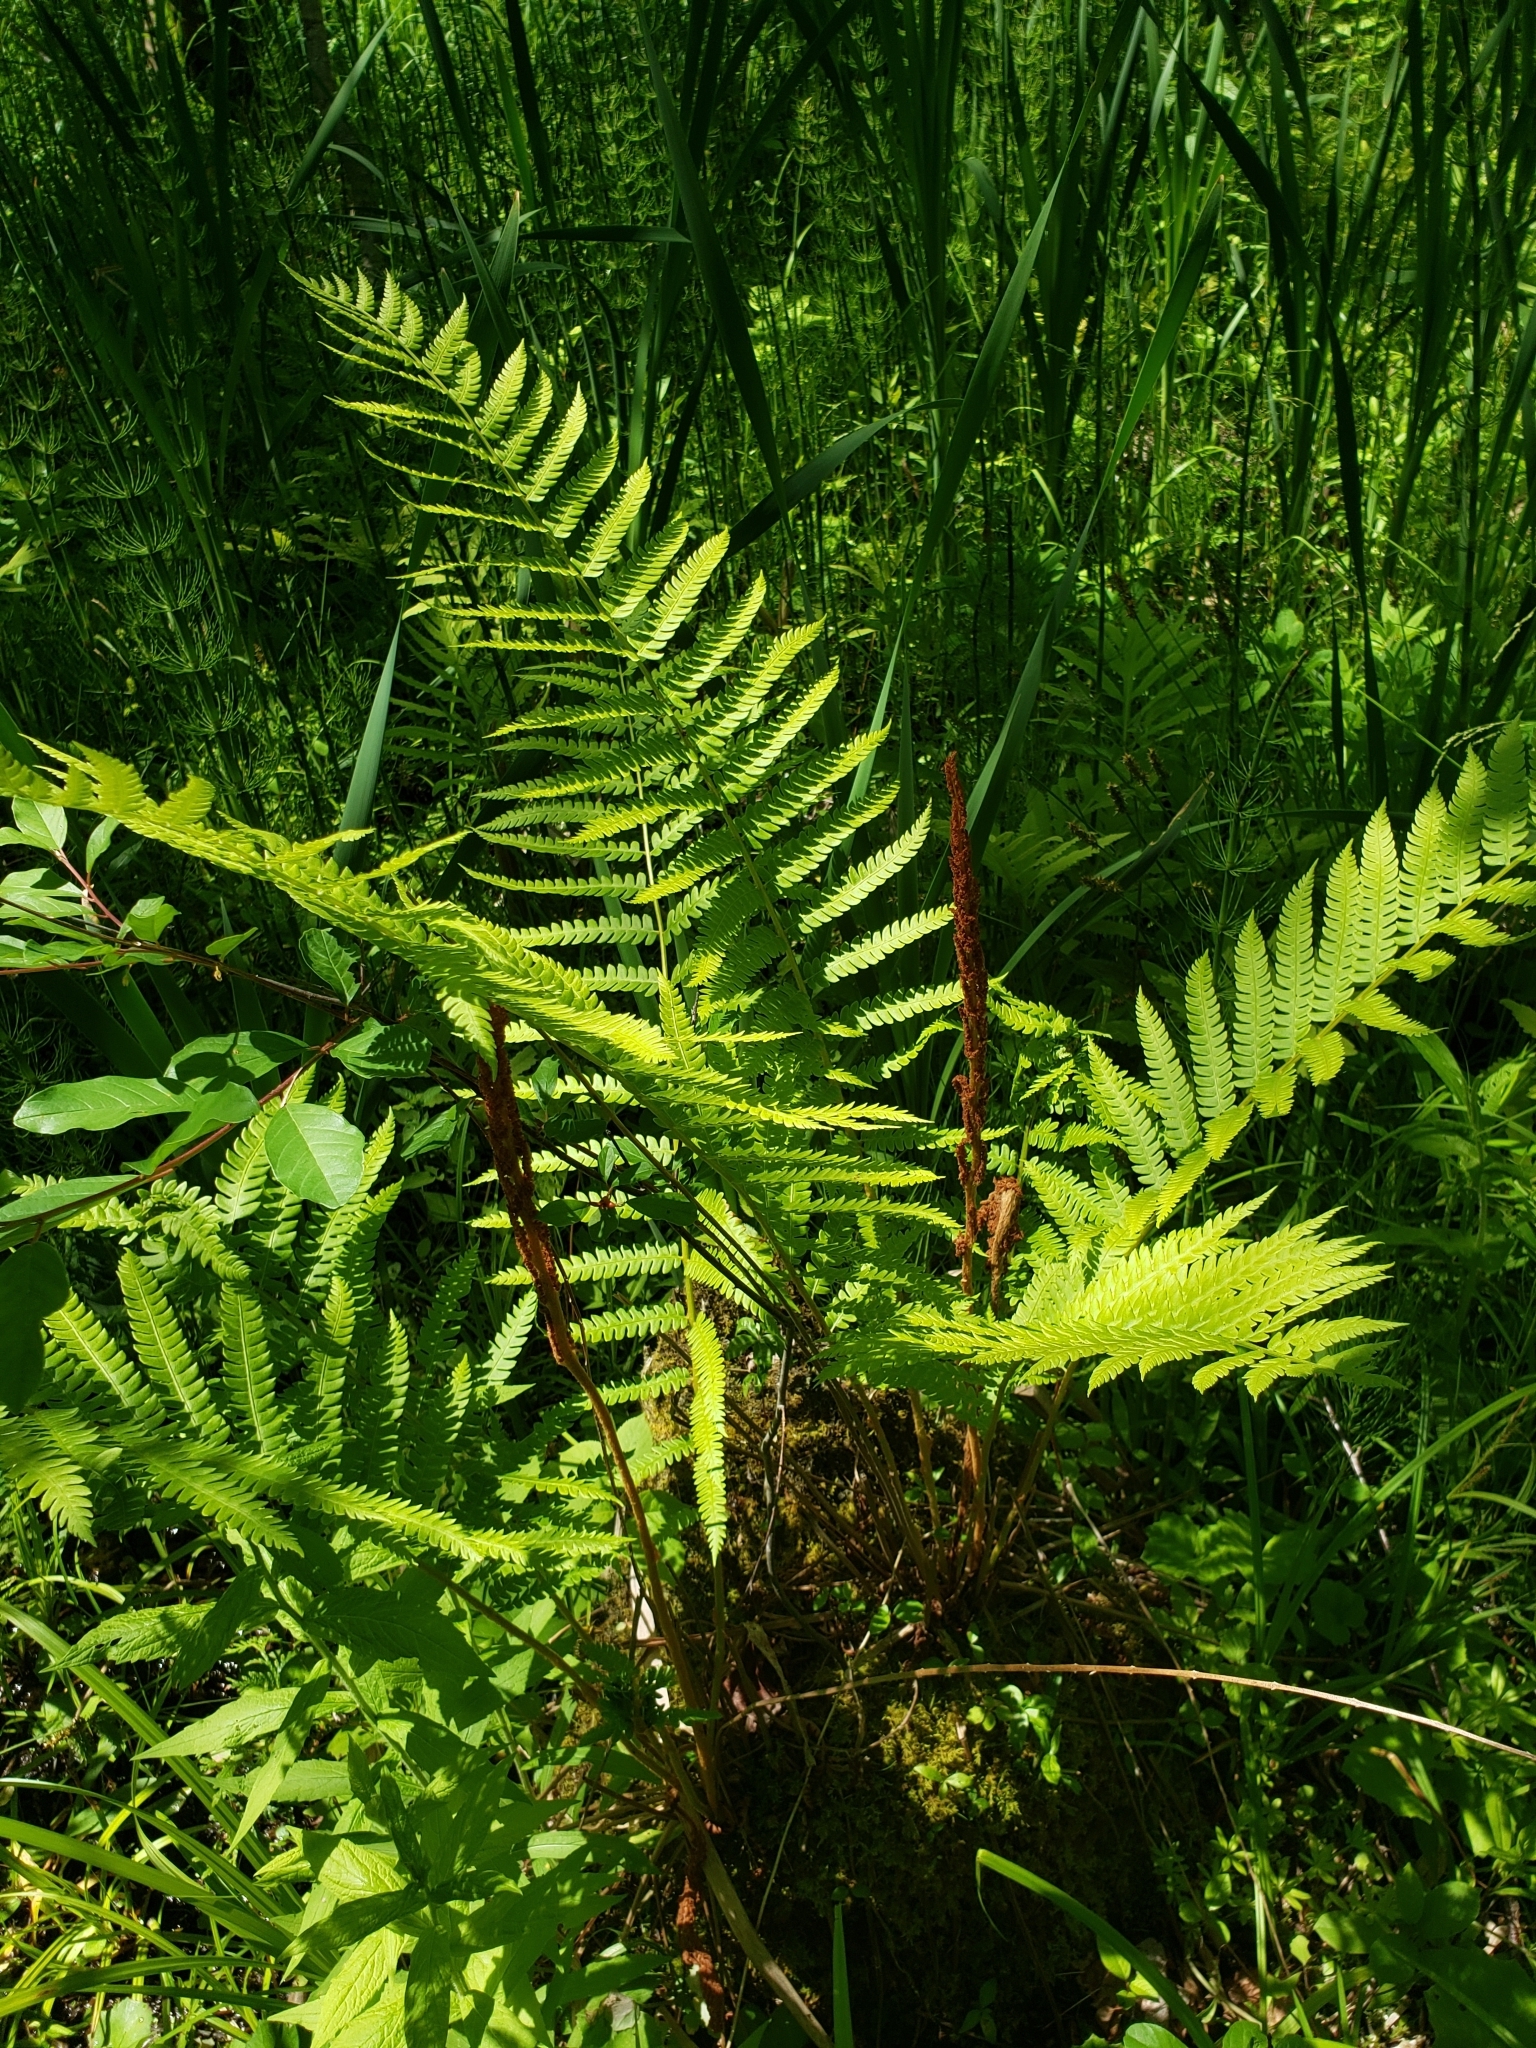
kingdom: Plantae
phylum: Tracheophyta
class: Polypodiopsida
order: Osmundales
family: Osmundaceae
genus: Osmundastrum
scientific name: Osmundastrum cinnamomeum
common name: Cinnamon fern
